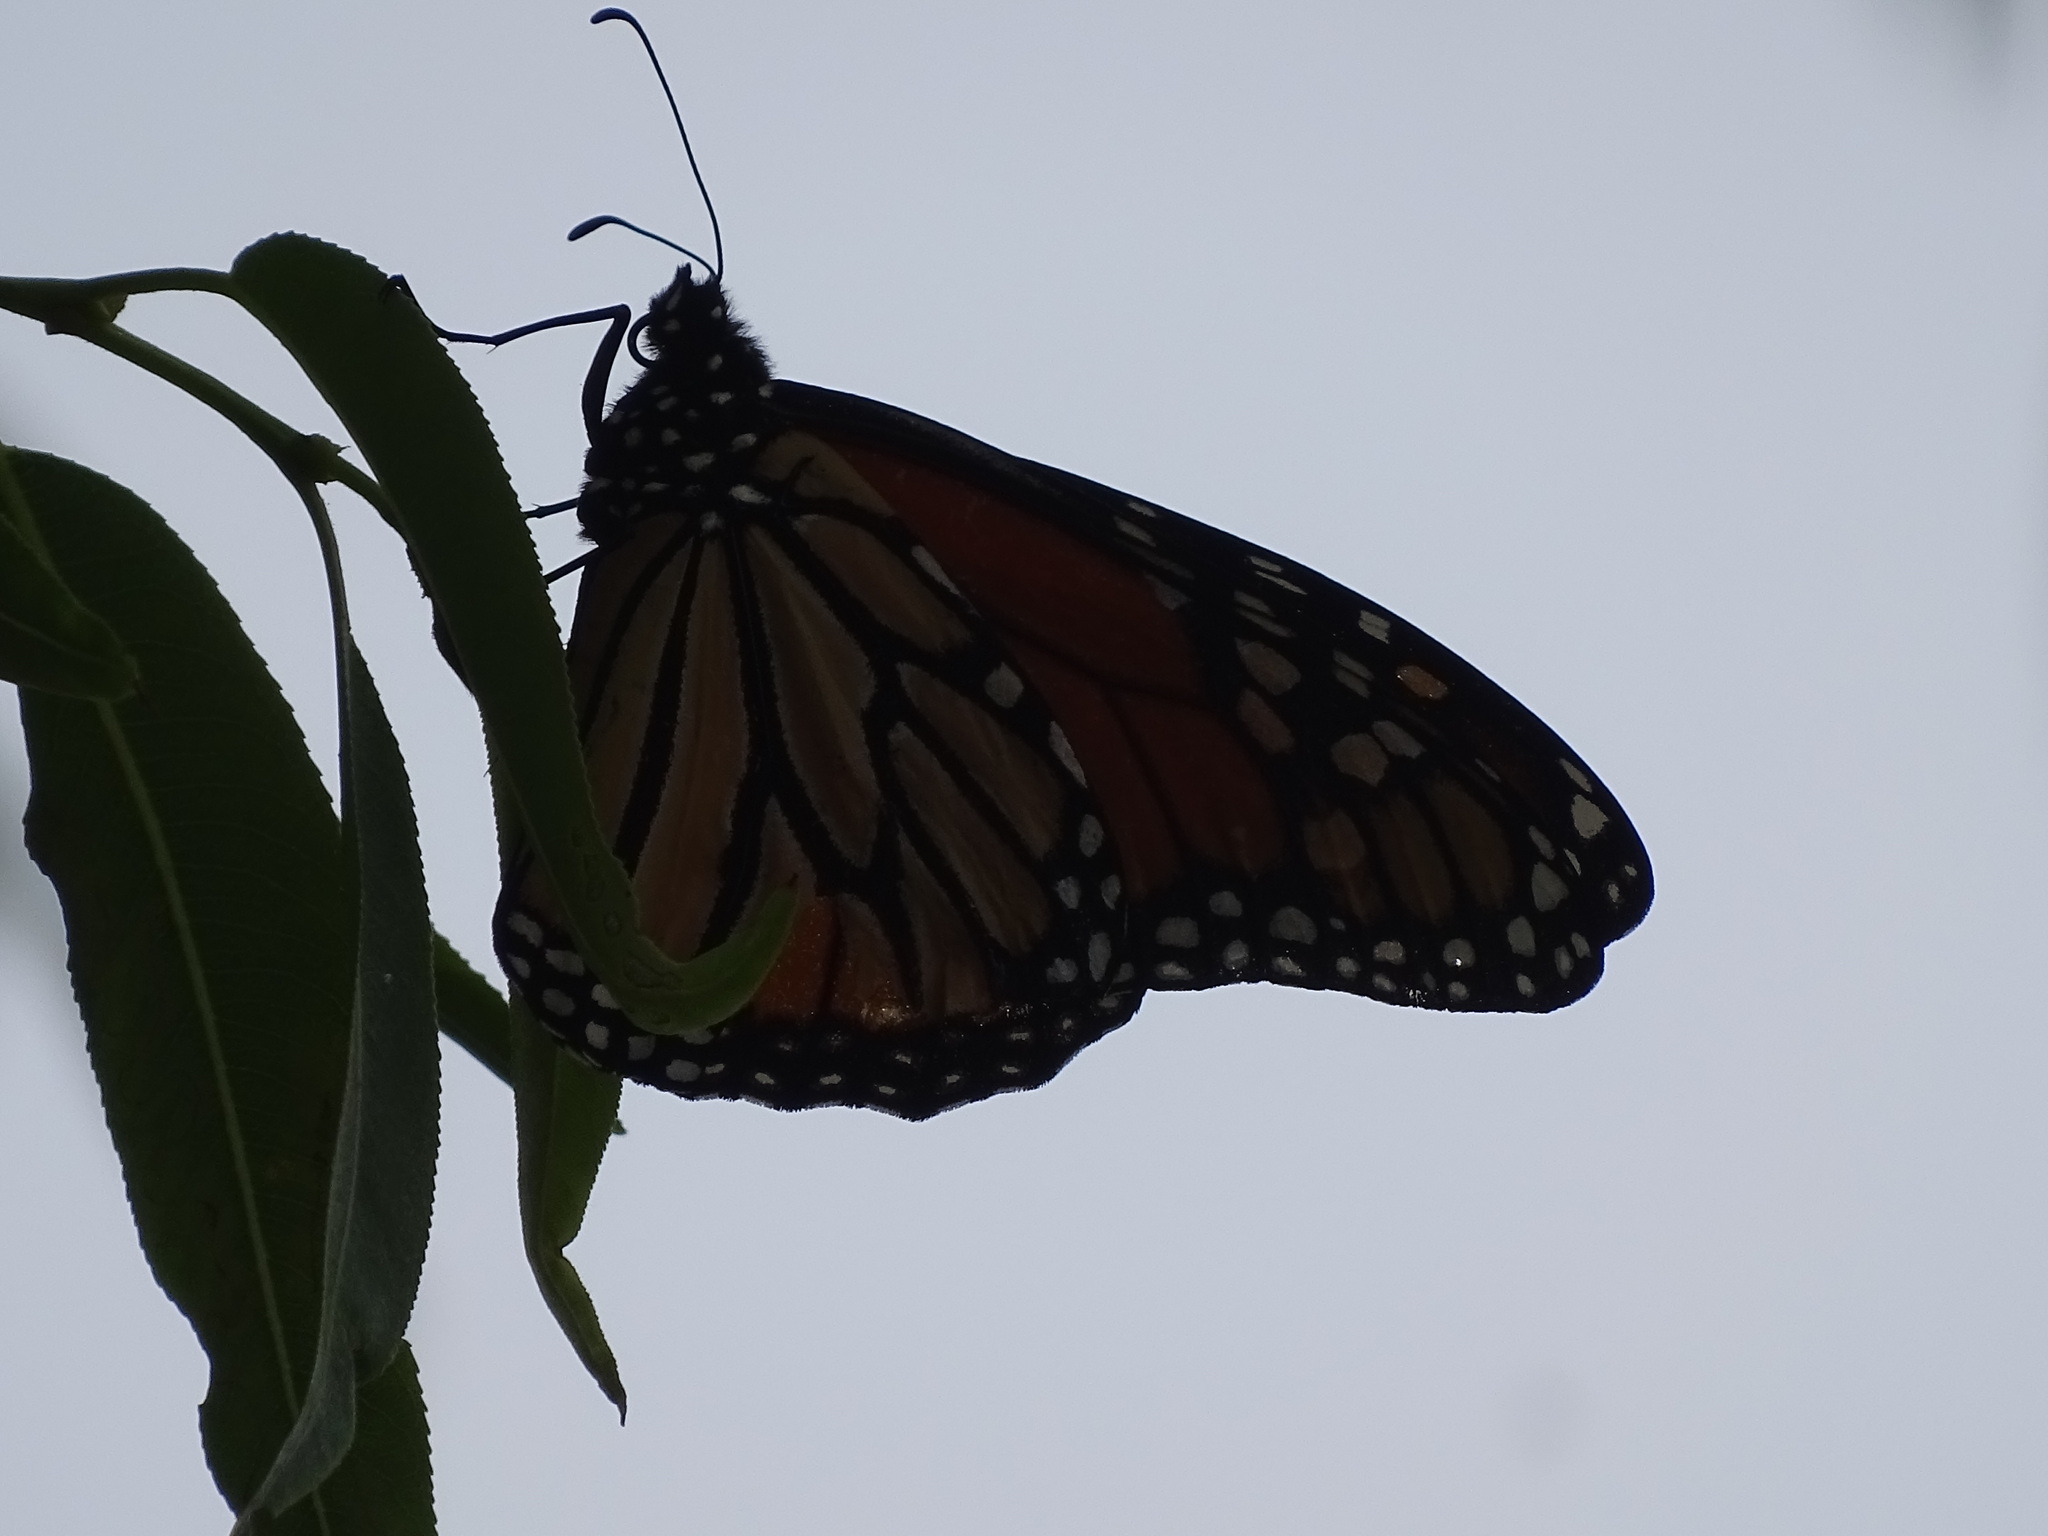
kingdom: Animalia
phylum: Arthropoda
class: Insecta
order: Lepidoptera
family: Nymphalidae
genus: Danaus
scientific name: Danaus plexippus
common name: Monarch
